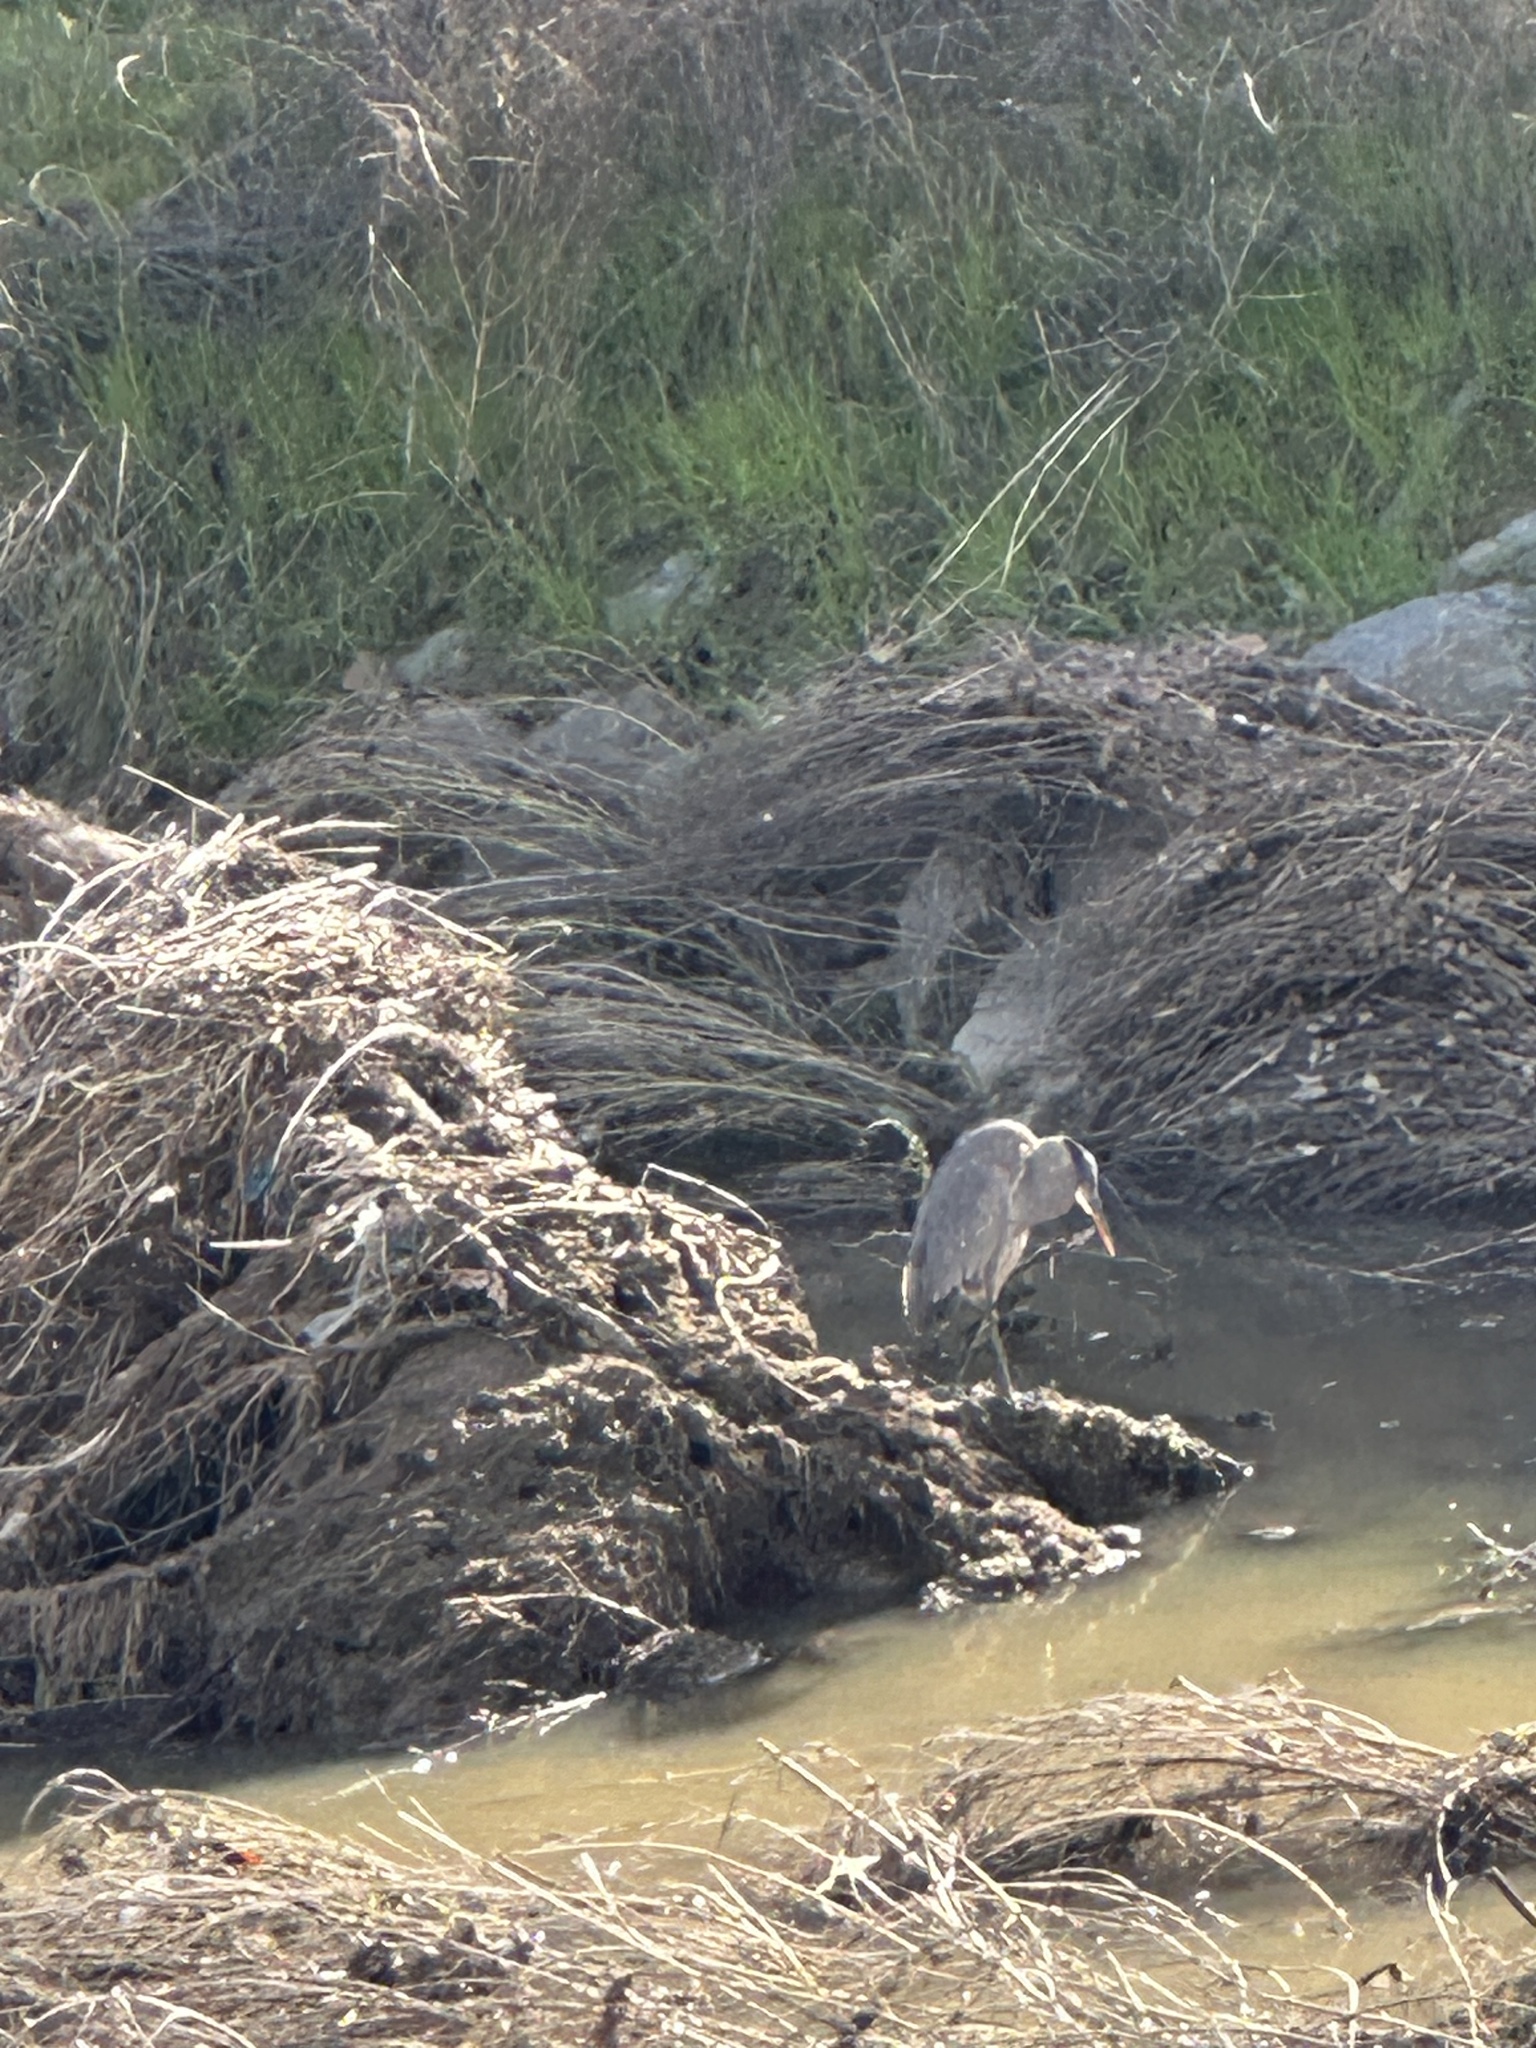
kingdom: Animalia
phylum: Chordata
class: Aves
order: Pelecaniformes
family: Ardeidae
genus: Ardea
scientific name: Ardea herodias
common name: Great blue heron
